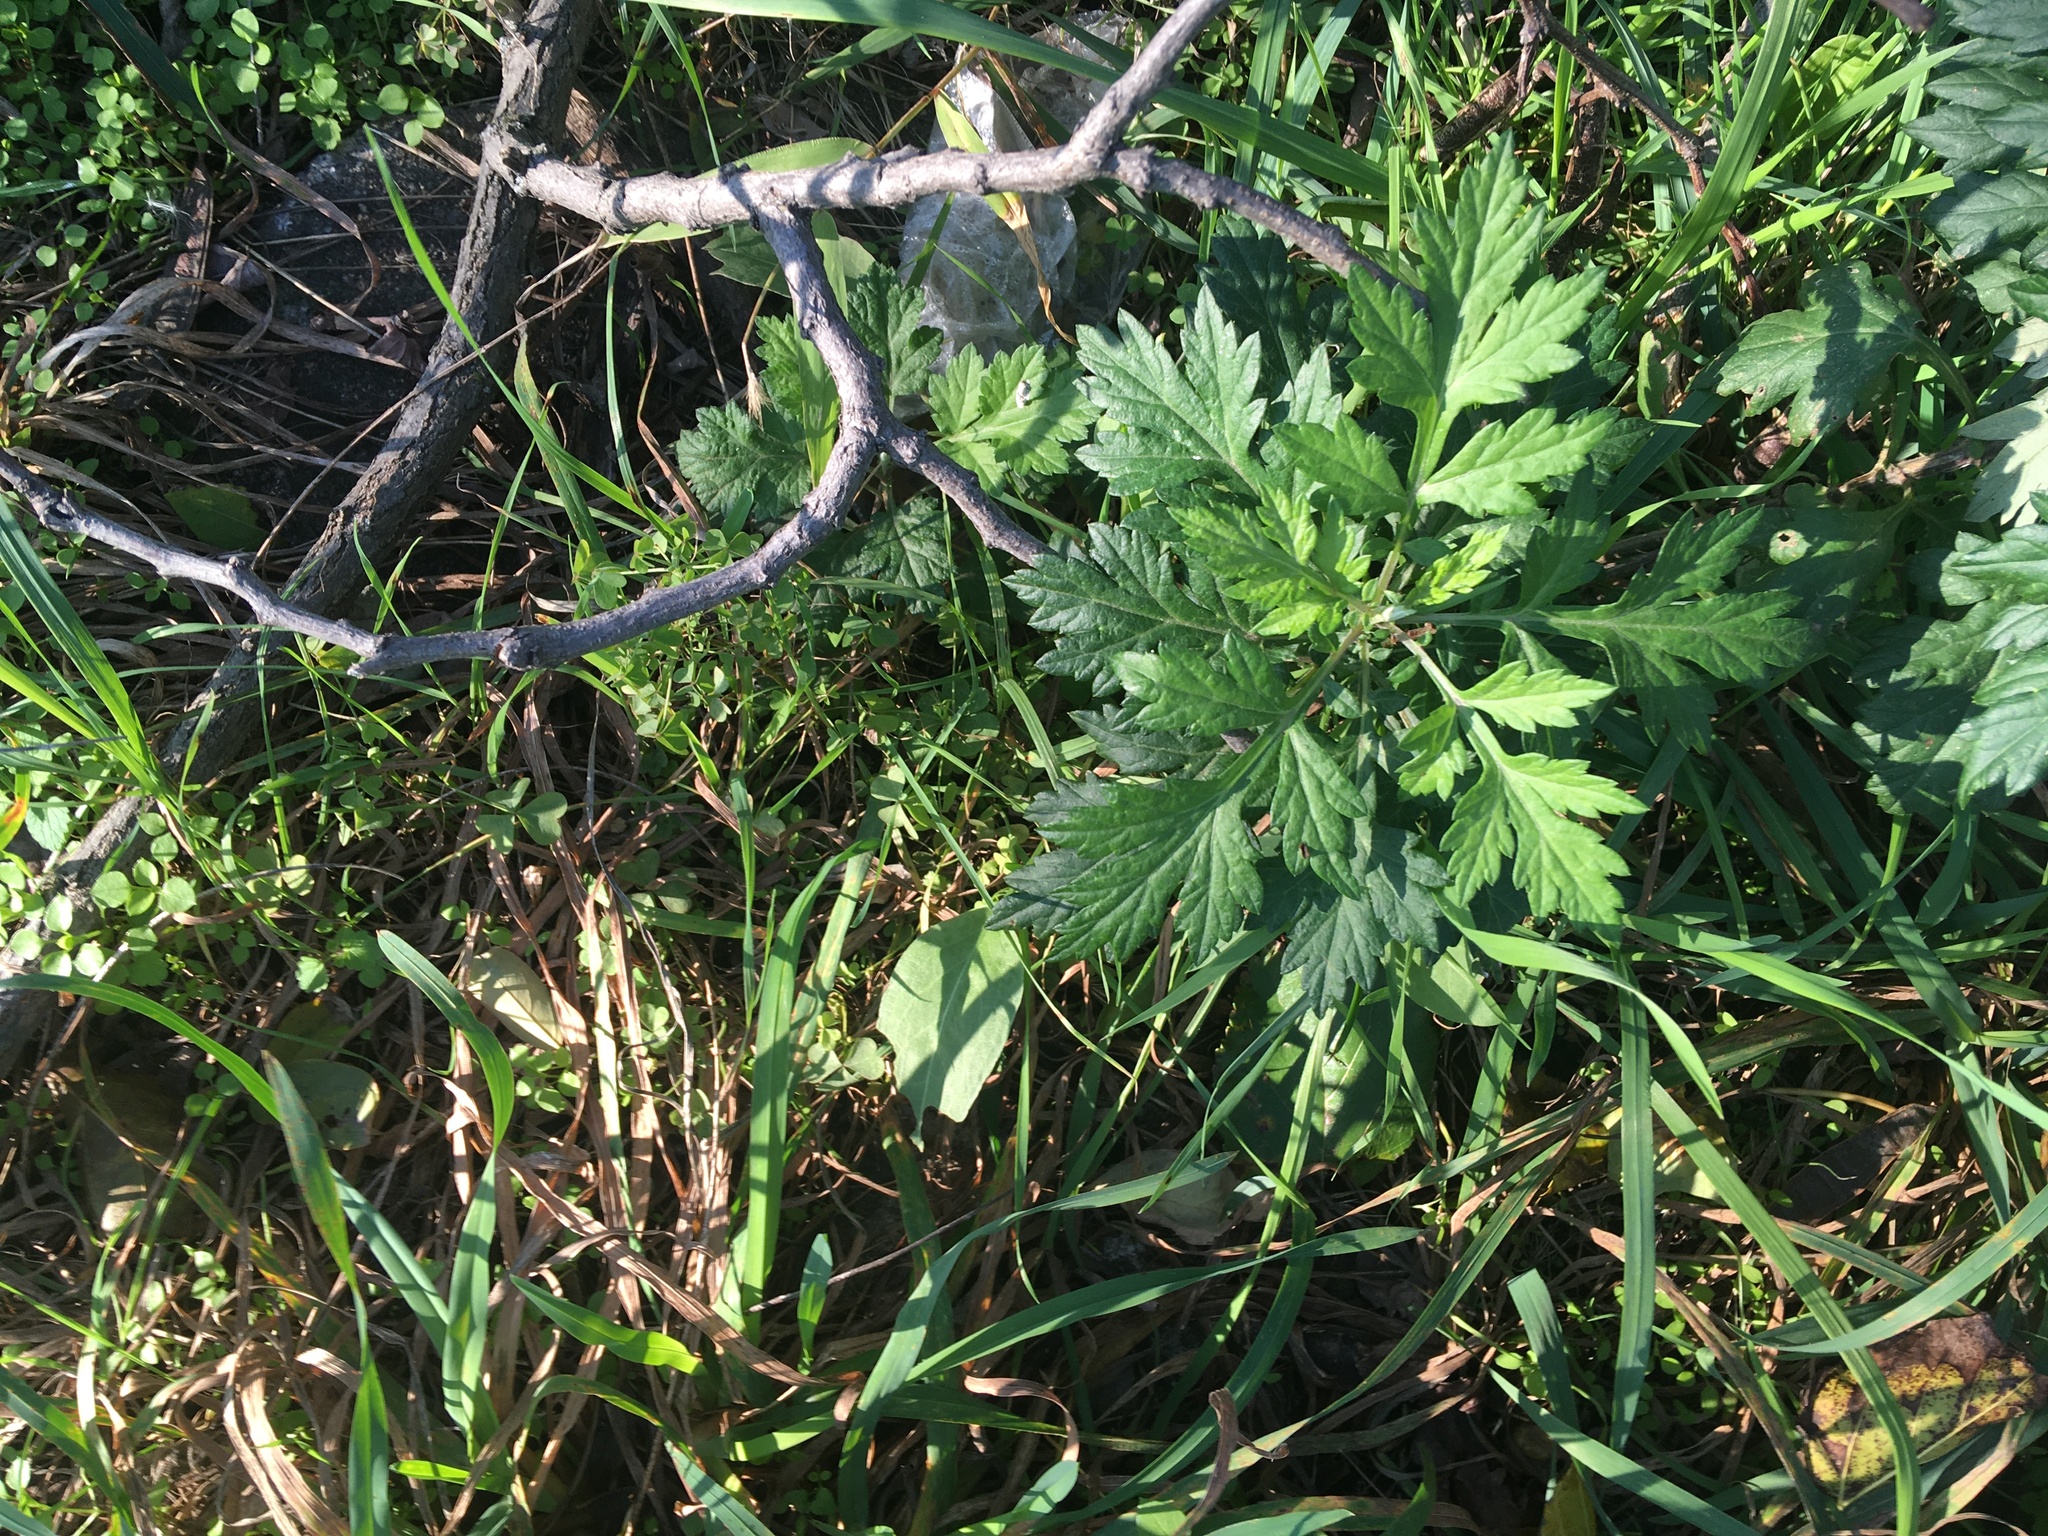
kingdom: Plantae
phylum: Tracheophyta
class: Magnoliopsida
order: Asterales
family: Asteraceae
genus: Artemisia
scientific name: Artemisia vulgaris
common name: Mugwort
